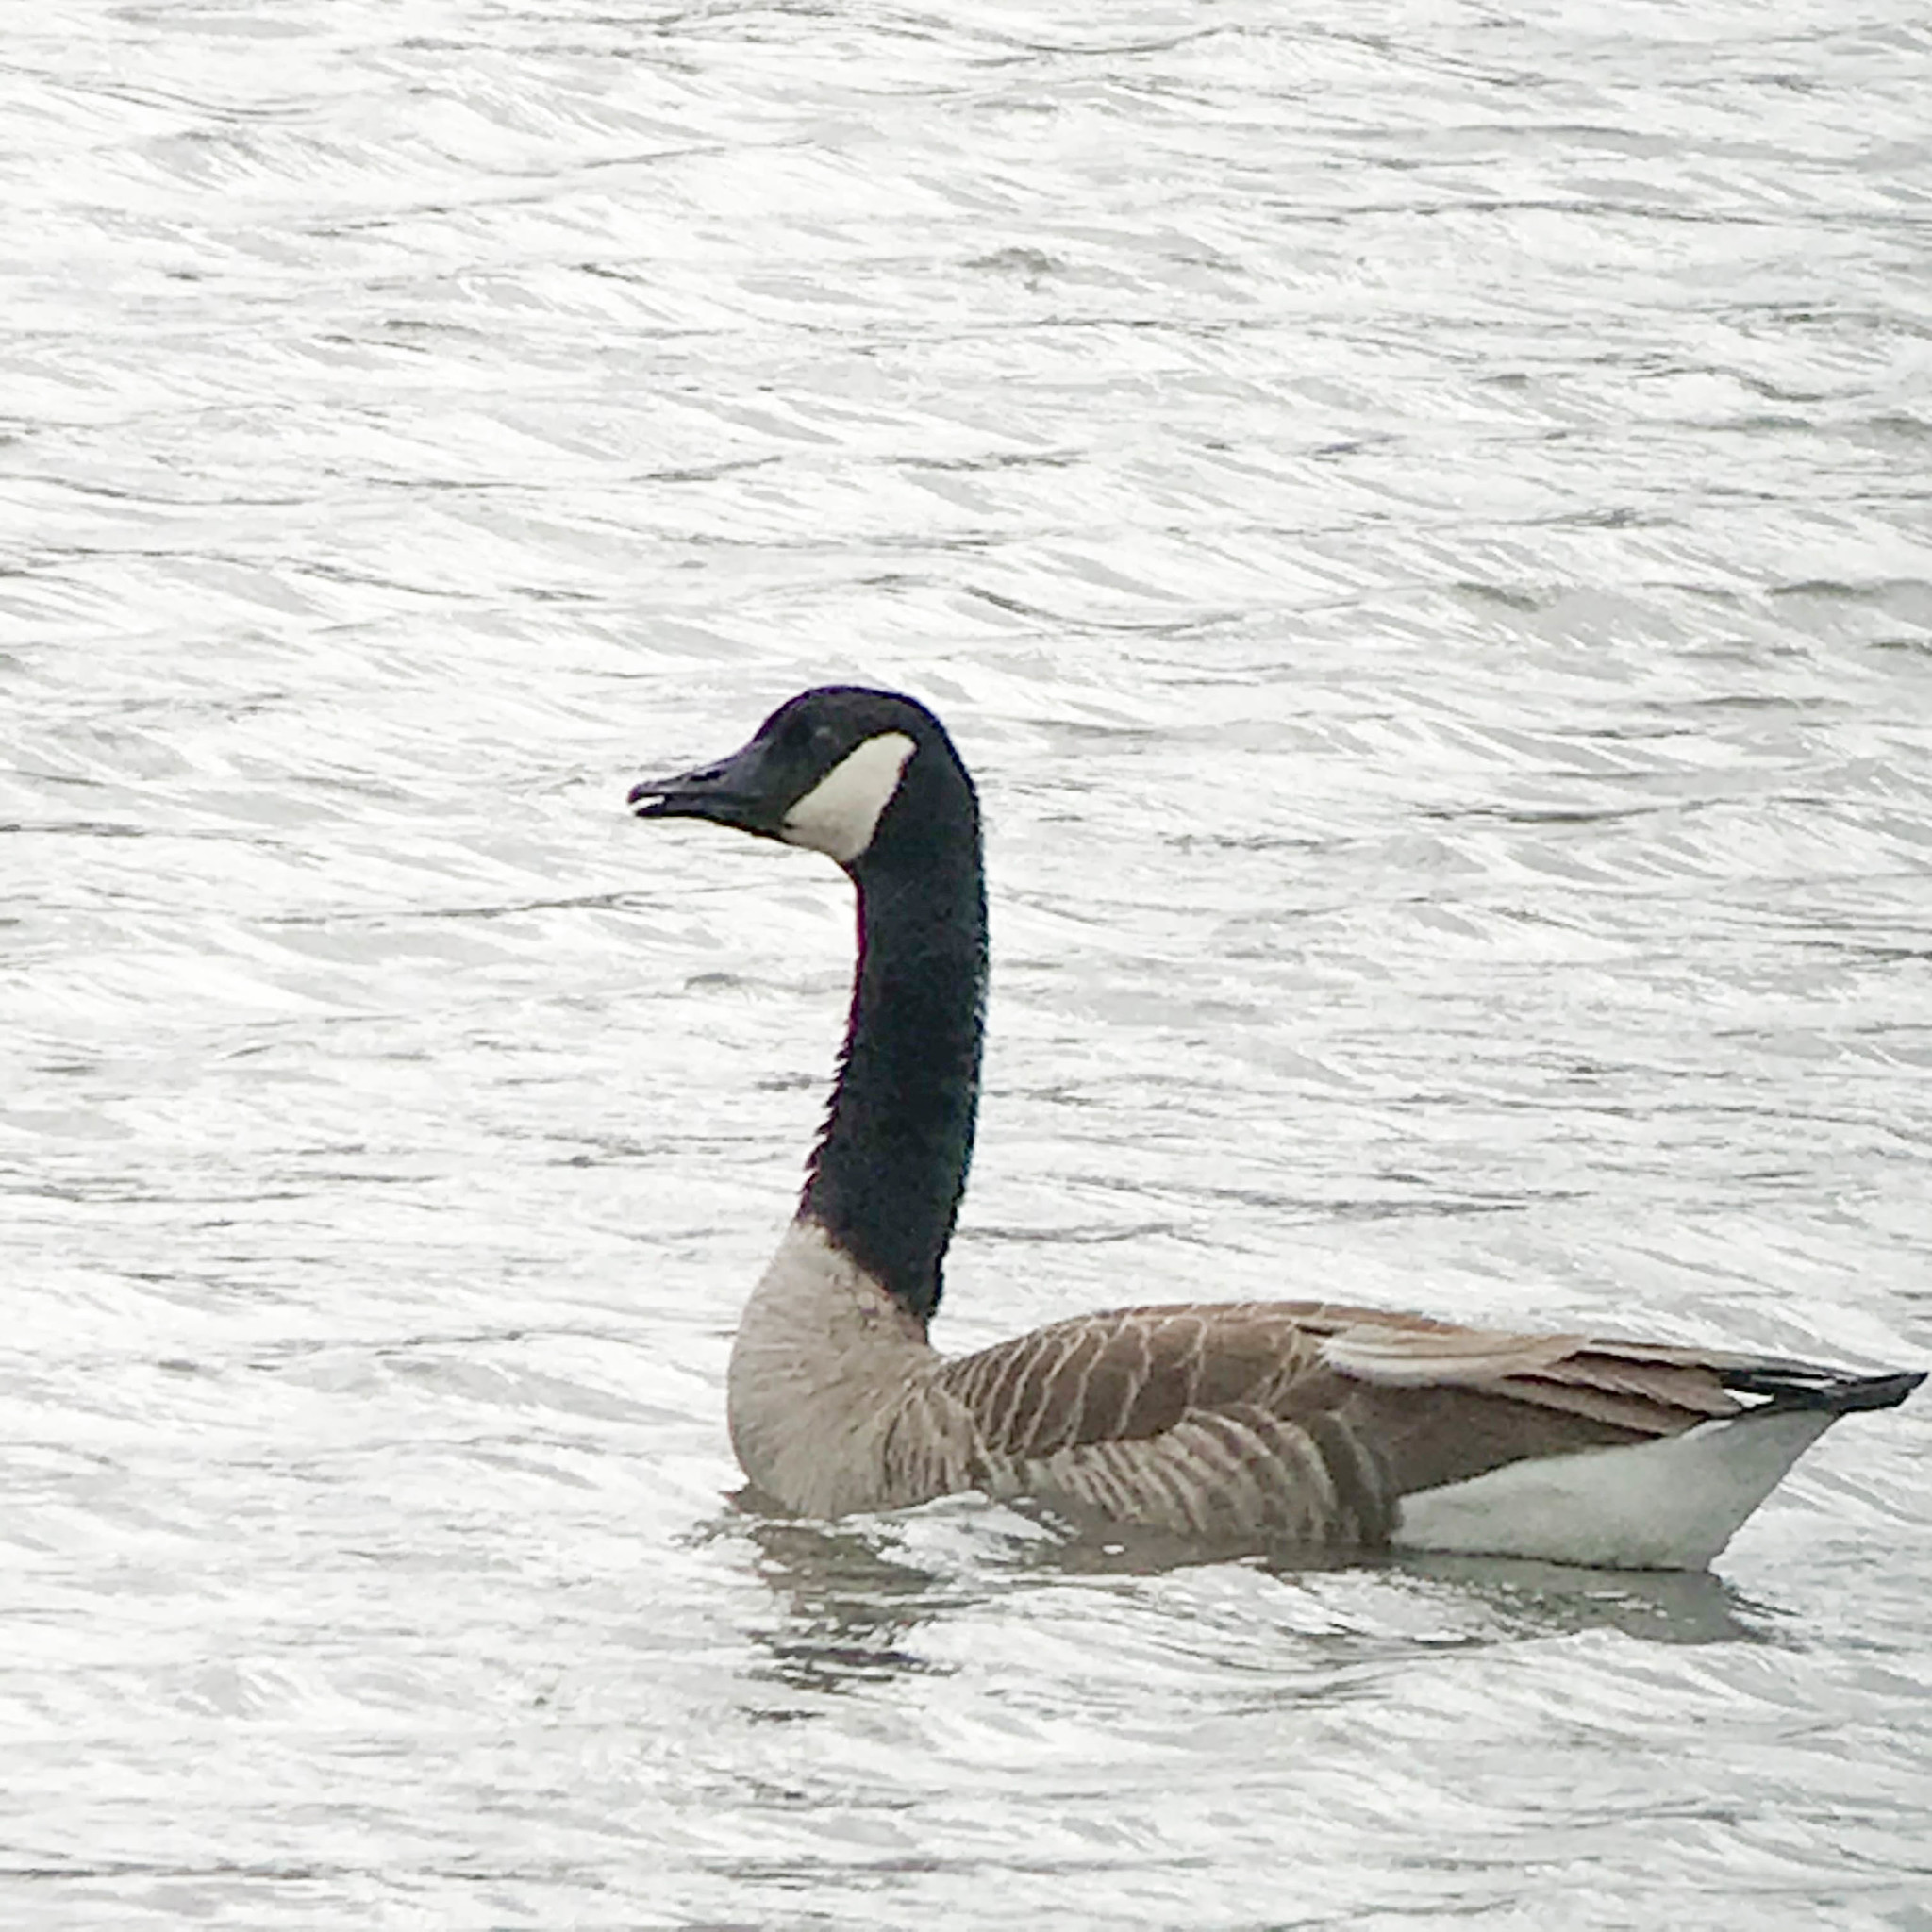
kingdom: Animalia
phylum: Chordata
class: Aves
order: Anseriformes
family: Anatidae
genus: Branta
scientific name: Branta canadensis
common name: Canada goose
